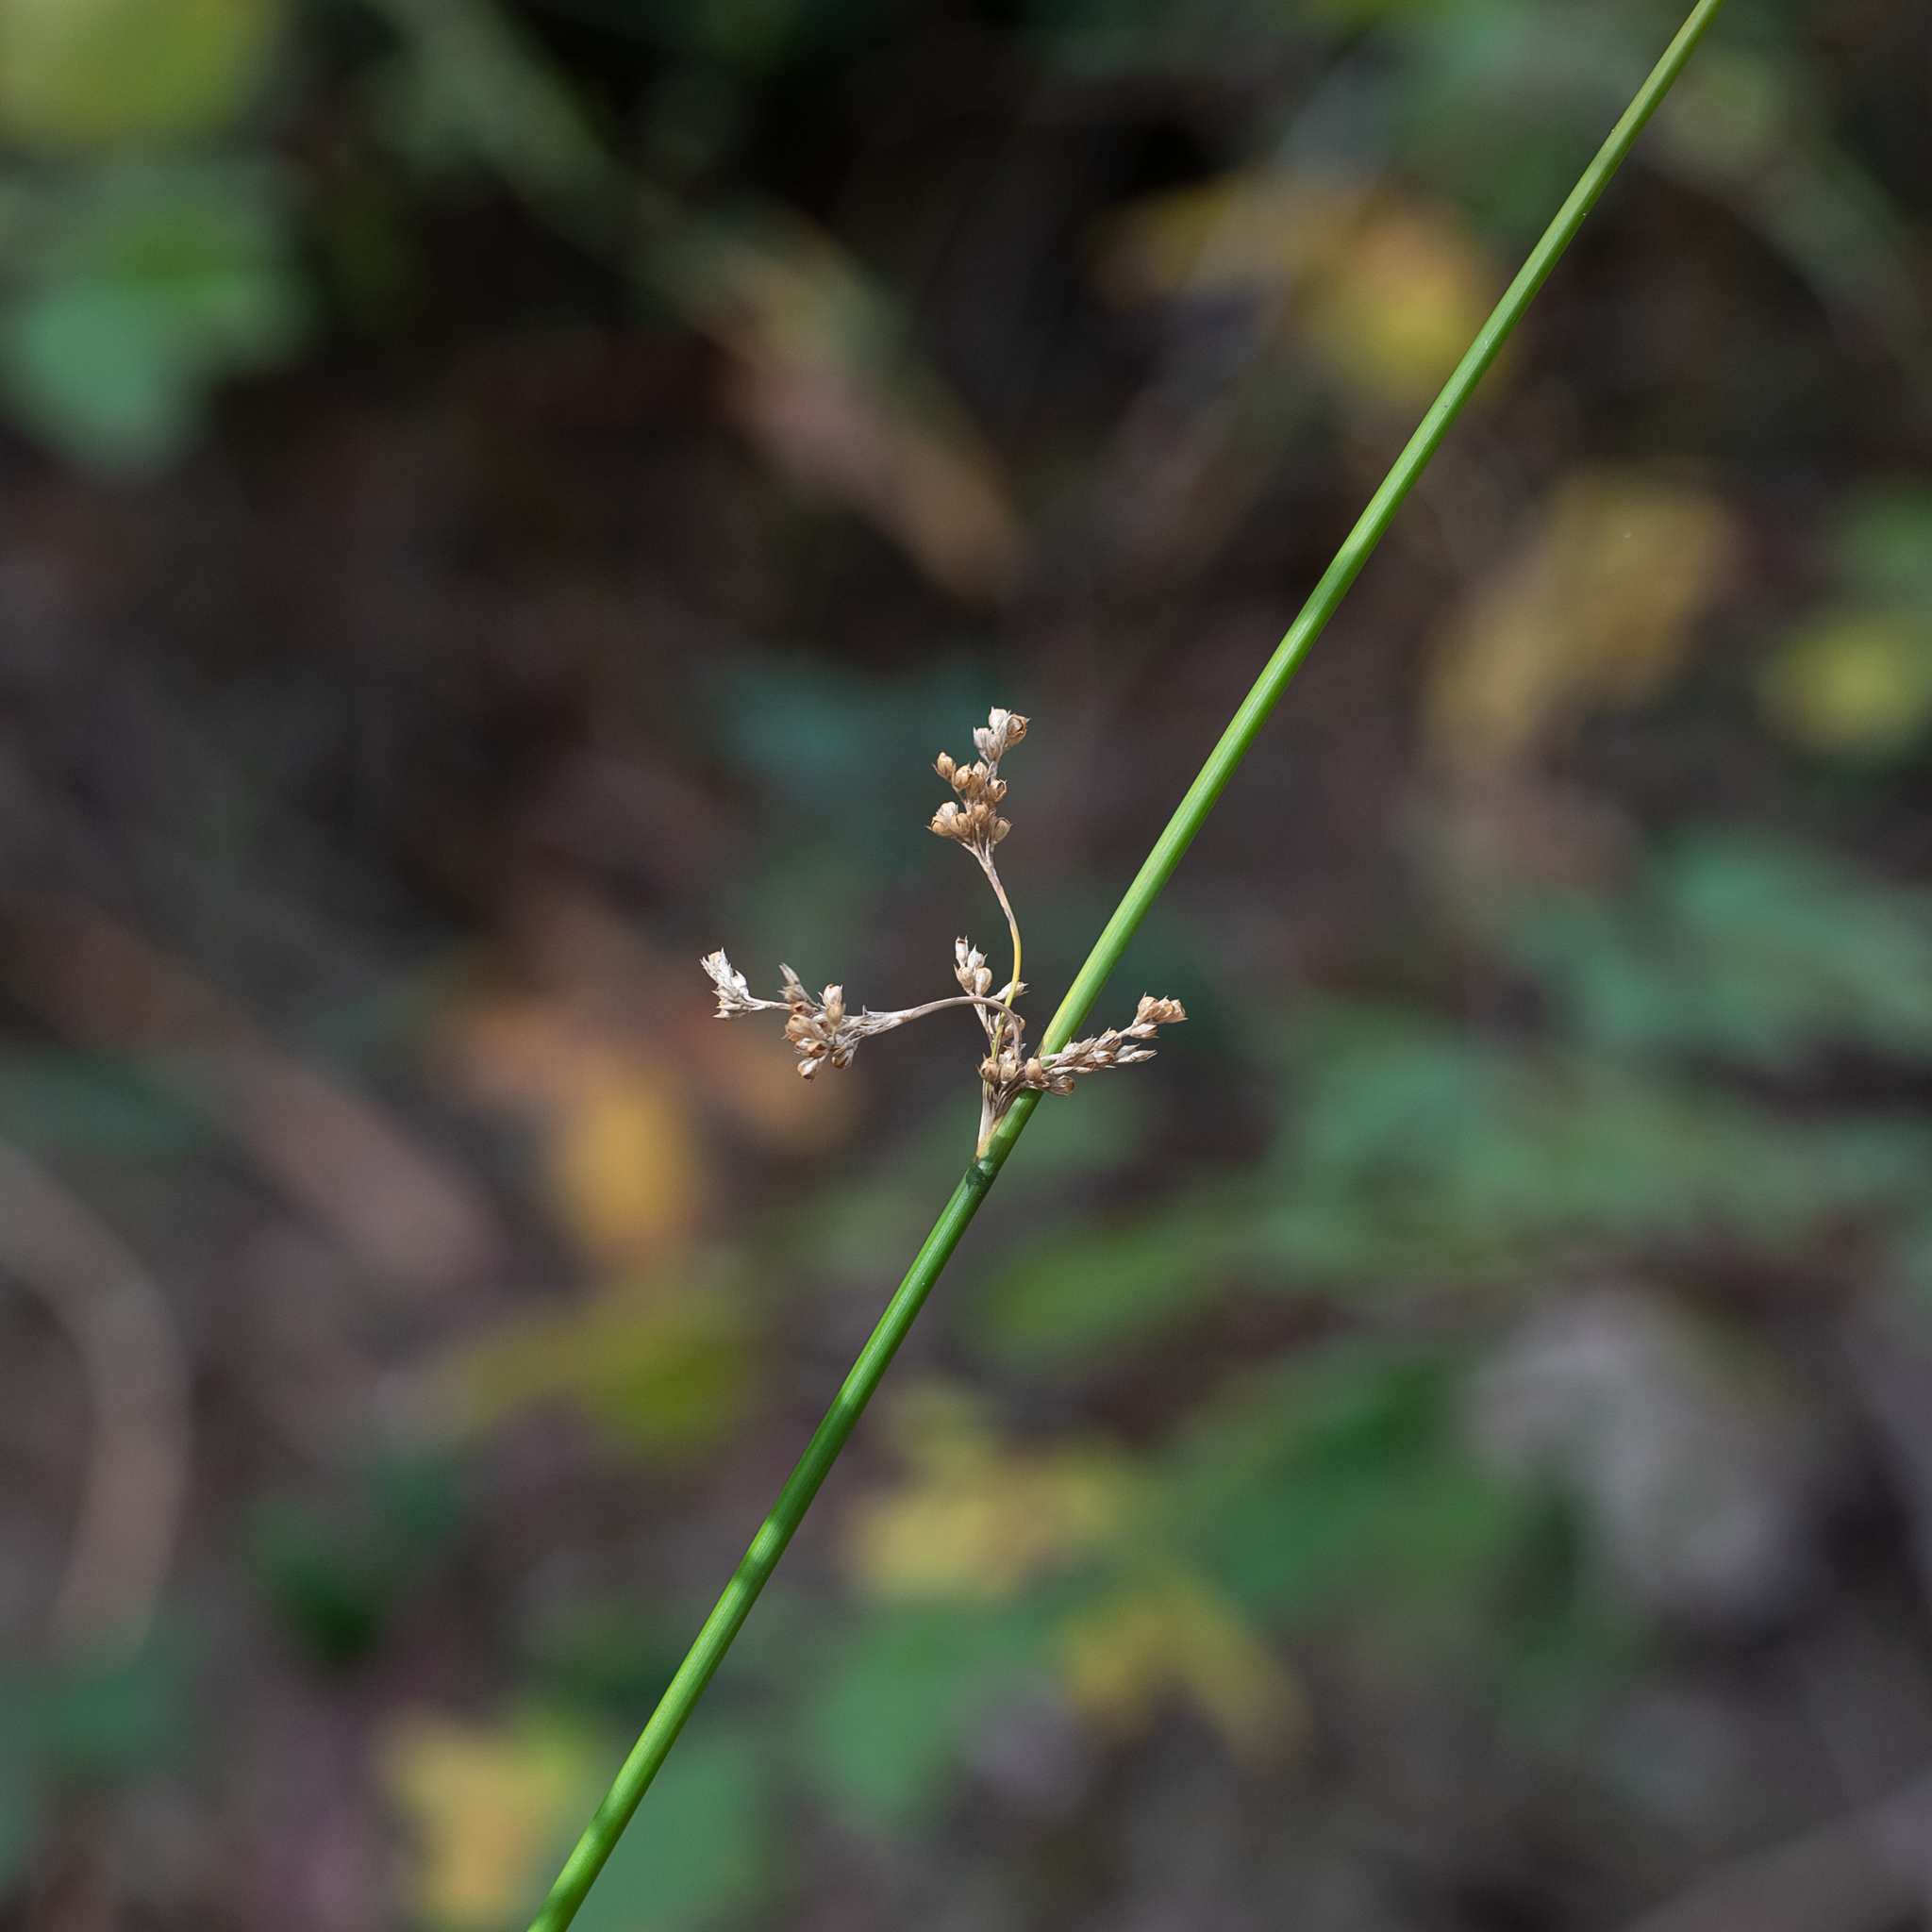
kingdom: Plantae
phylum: Tracheophyta
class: Liliopsida
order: Poales
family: Juncaceae
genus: Juncus
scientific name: Juncus pauciflorus
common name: Loose-flowered rush
